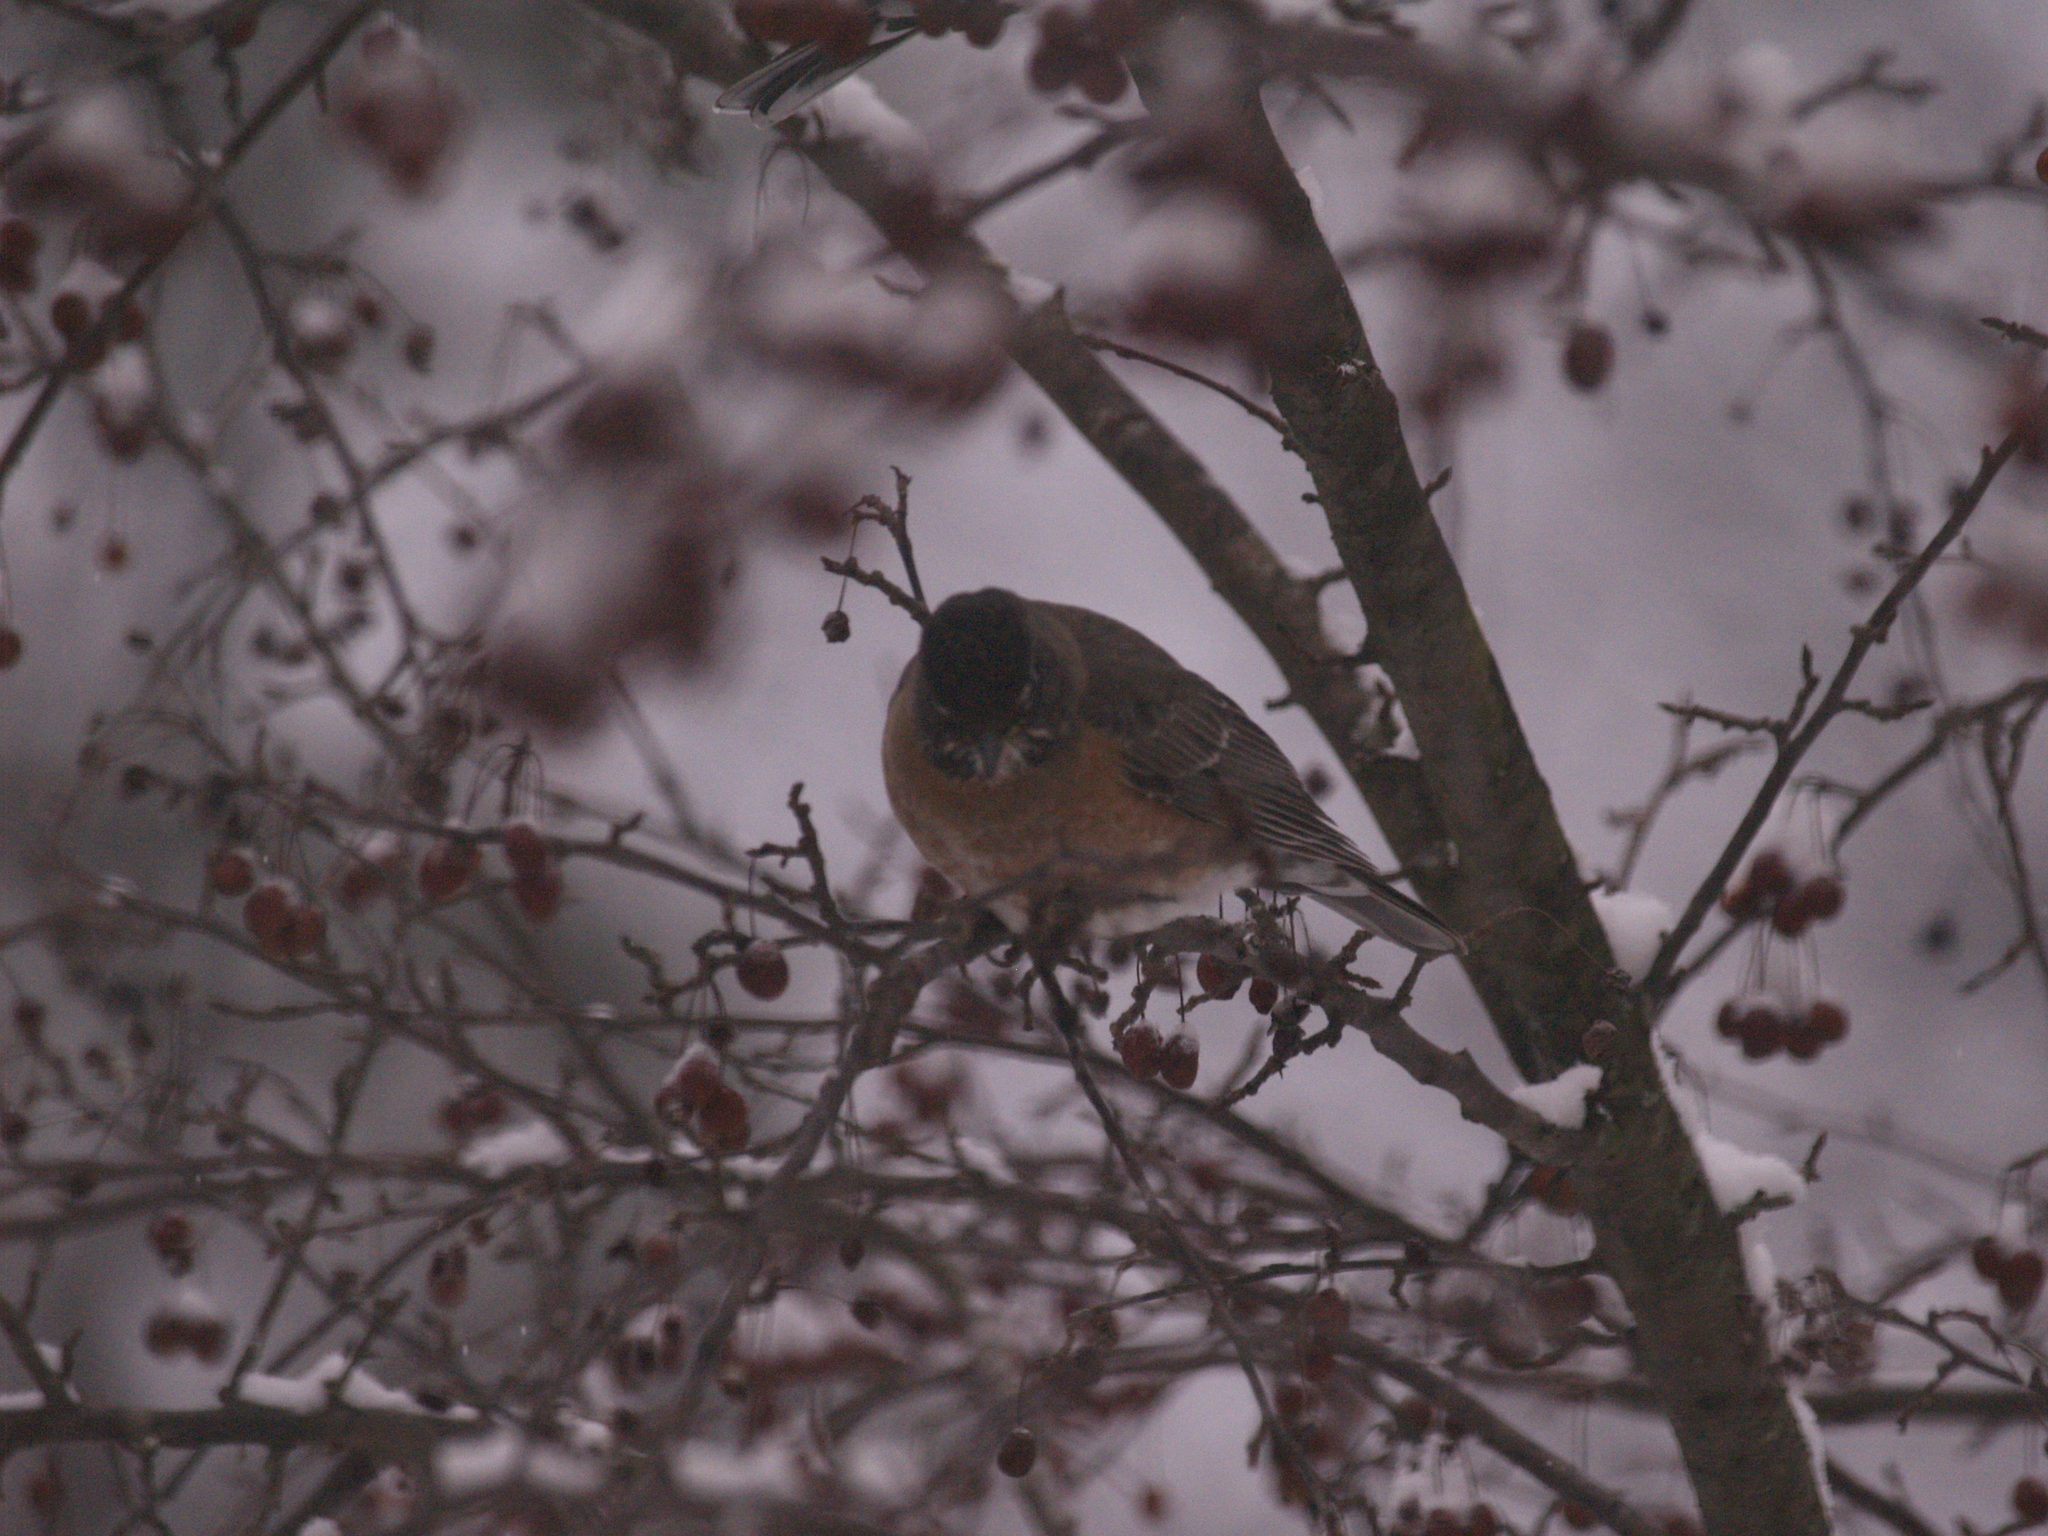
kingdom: Animalia
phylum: Chordata
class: Aves
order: Passeriformes
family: Turdidae
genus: Turdus
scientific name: Turdus migratorius
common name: American robin
